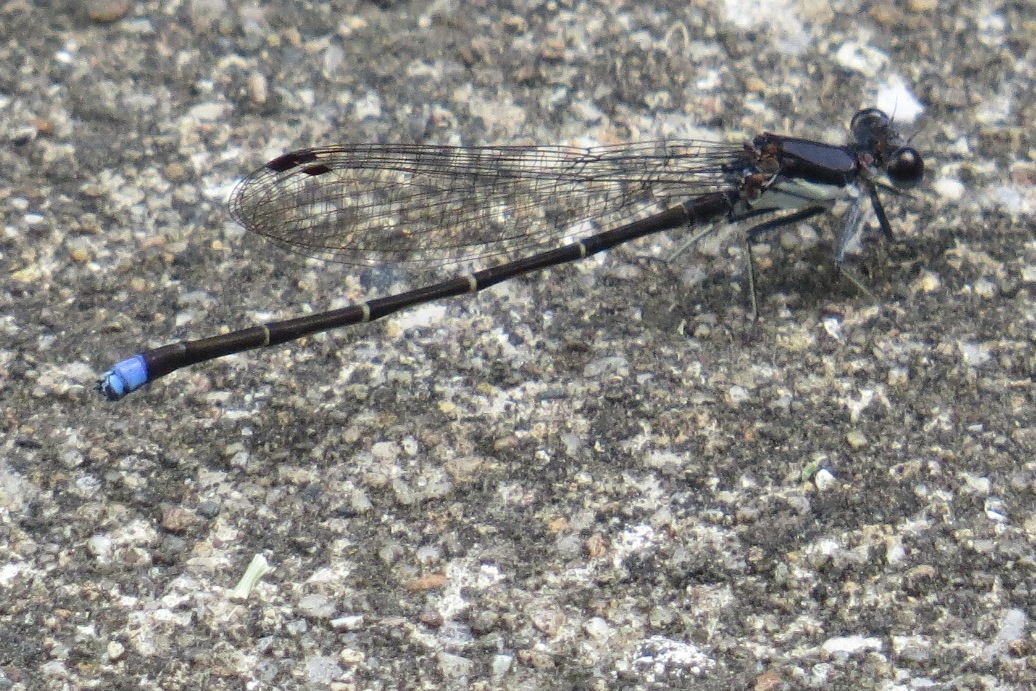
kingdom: Animalia
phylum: Arthropoda
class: Insecta
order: Odonata
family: Coenagrionidae
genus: Argia
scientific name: Argia tibialis
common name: Blue-tipped dancer
